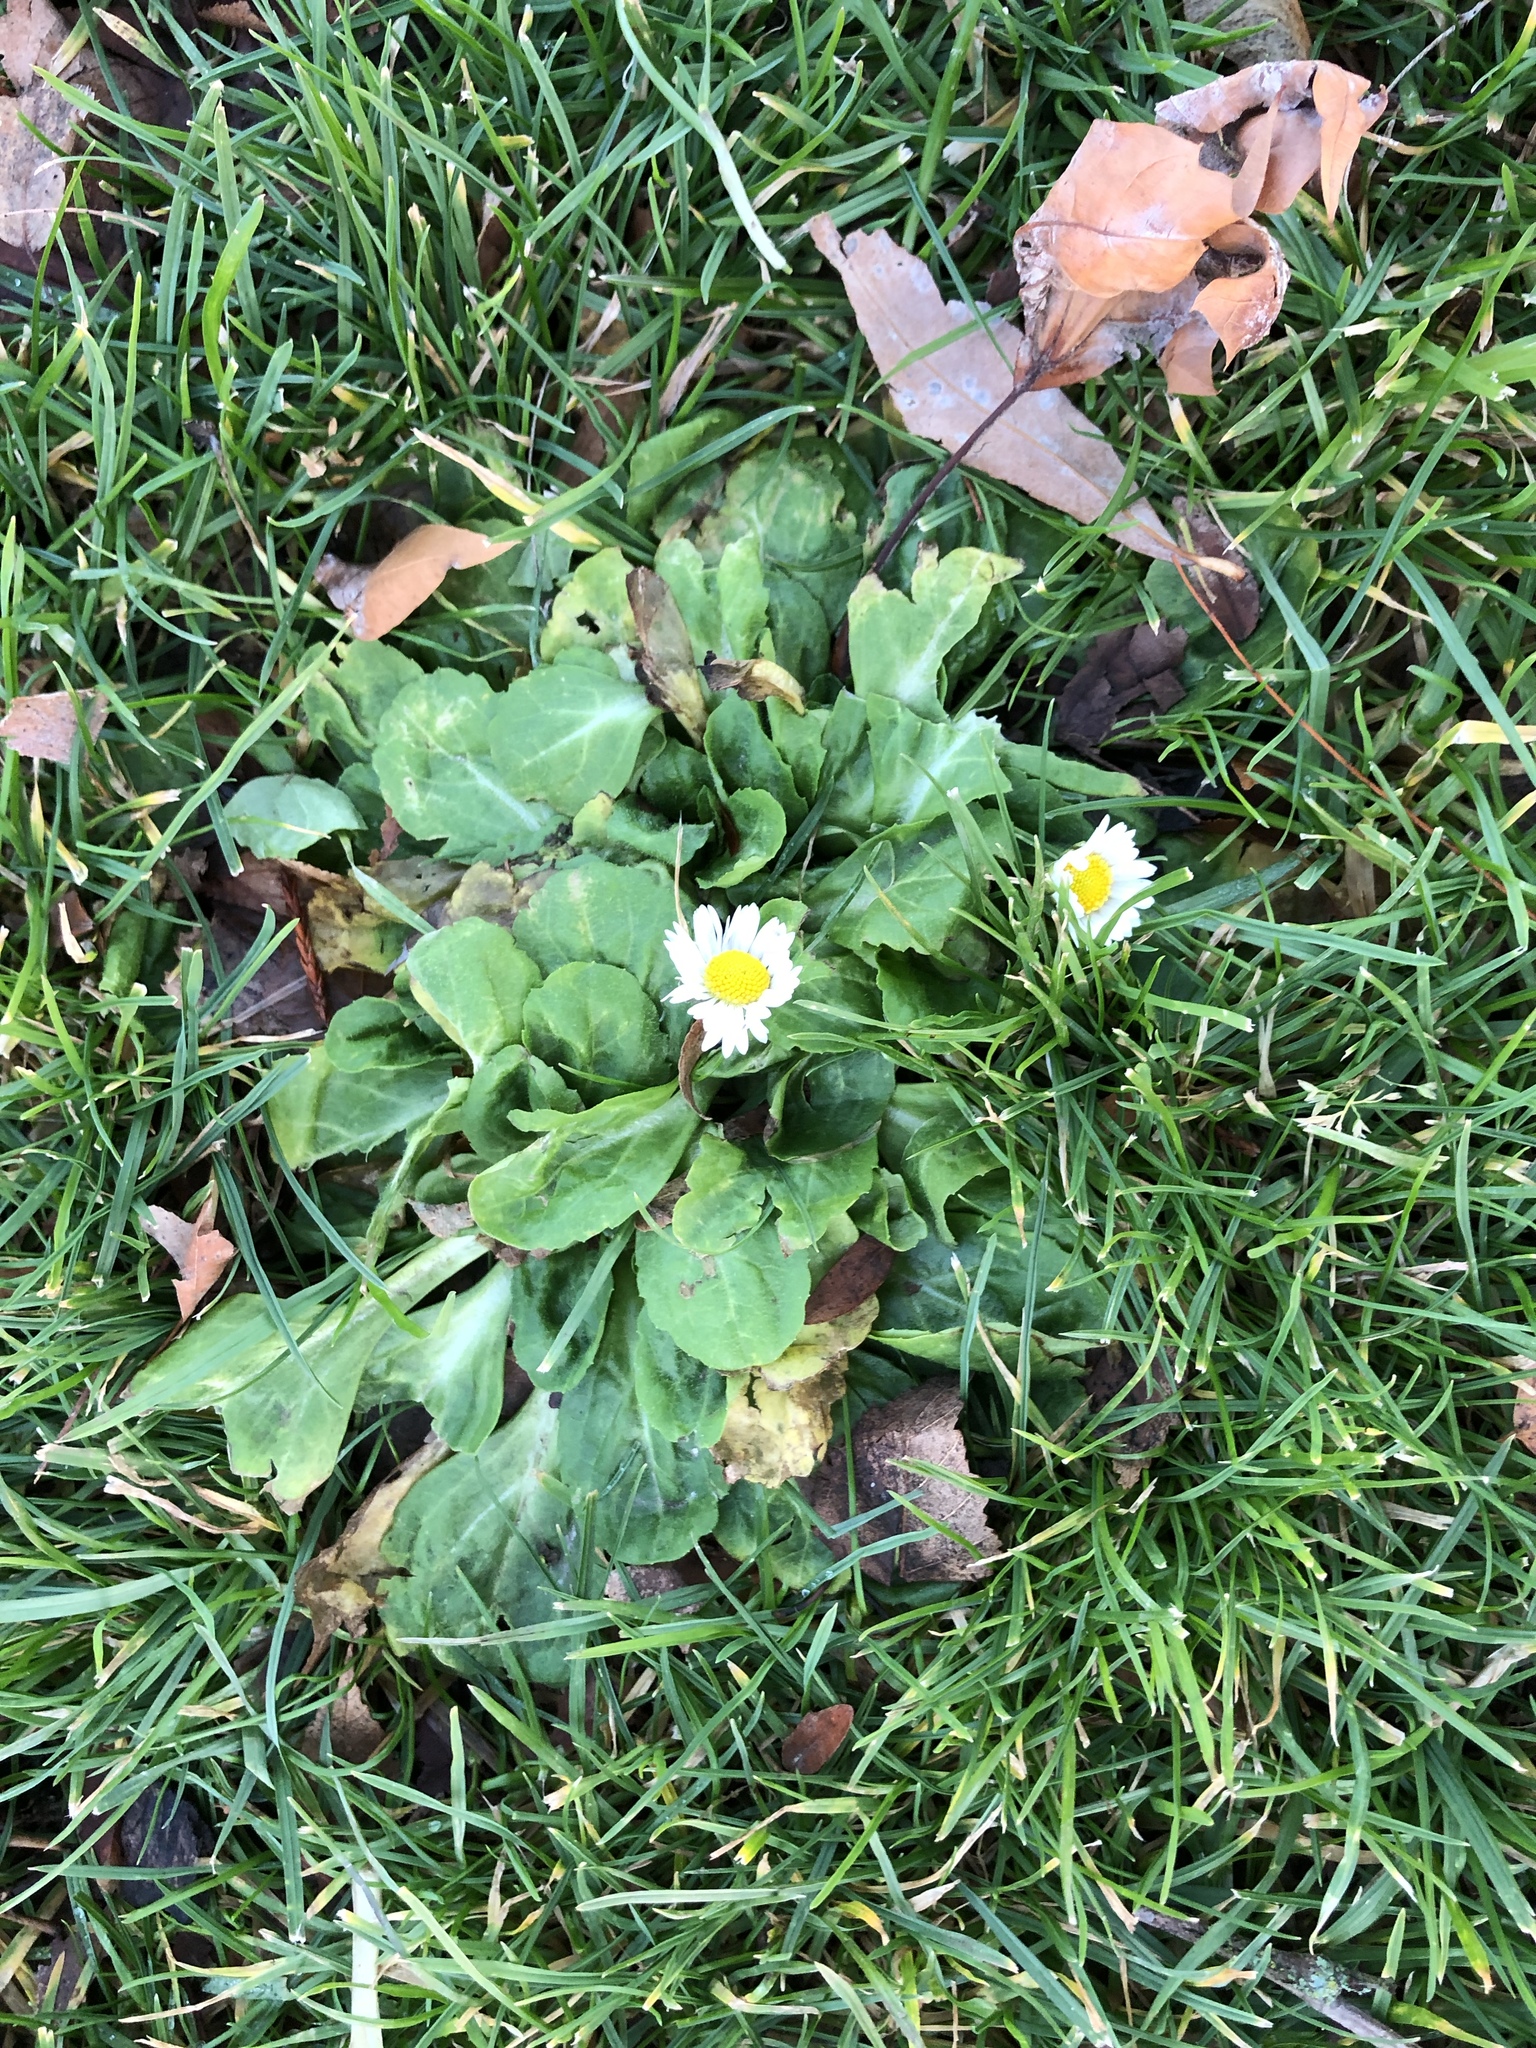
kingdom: Plantae
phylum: Tracheophyta
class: Magnoliopsida
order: Asterales
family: Asteraceae
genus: Bellis
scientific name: Bellis perennis
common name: Lawndaisy
